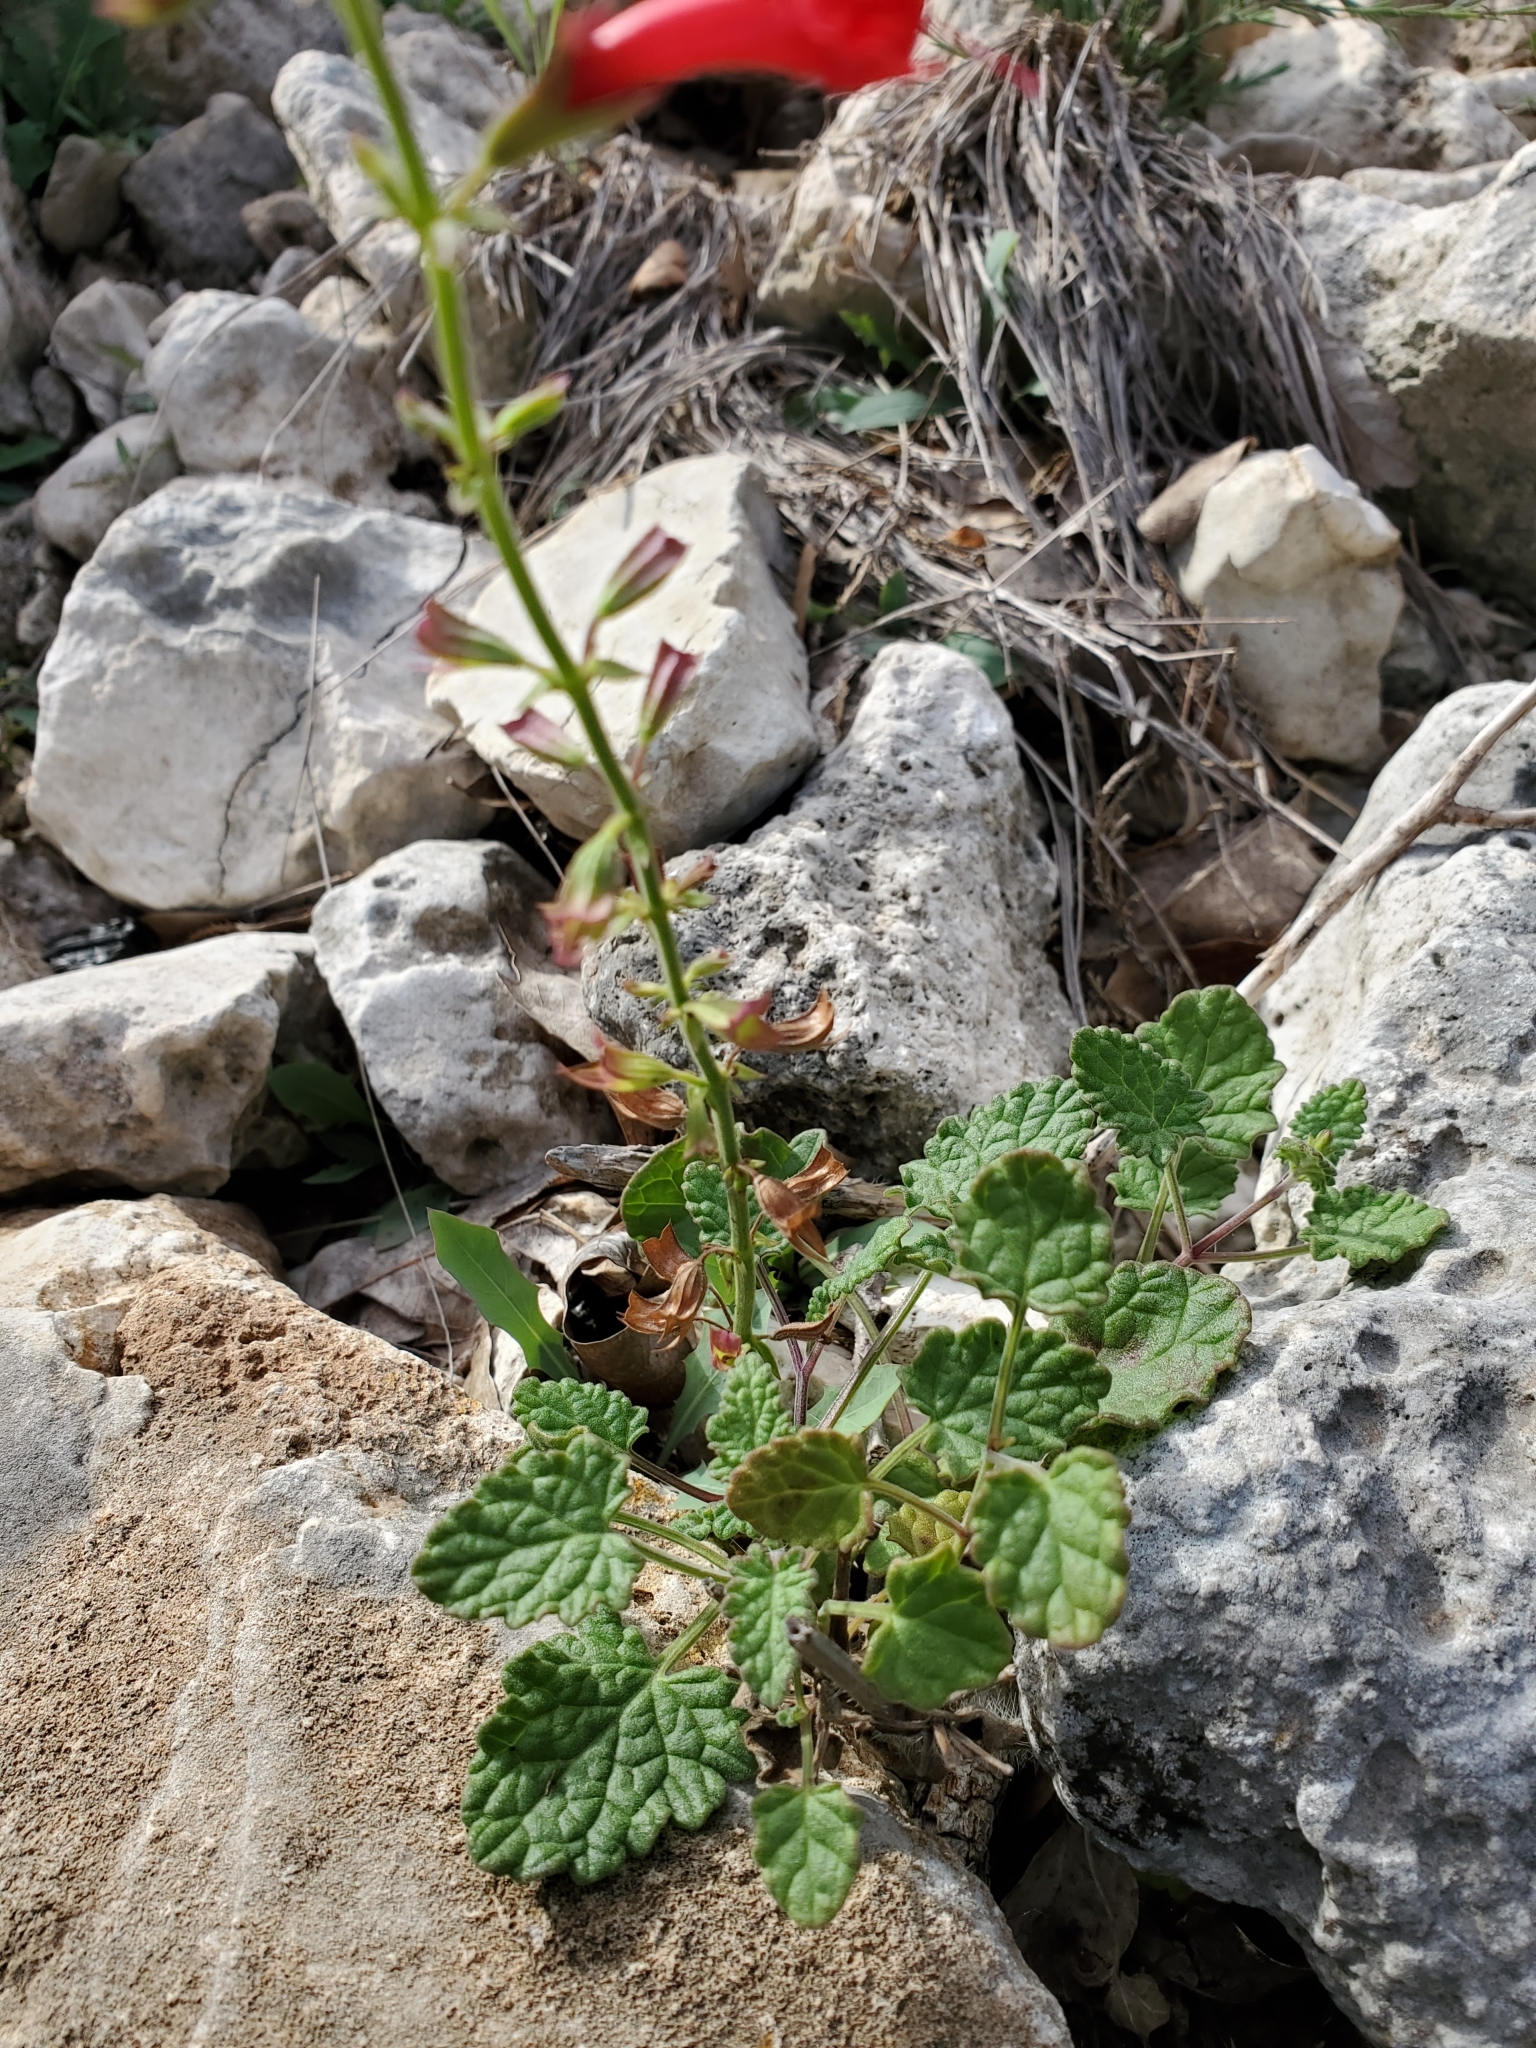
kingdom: Plantae
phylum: Tracheophyta
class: Magnoliopsida
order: Lamiales
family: Lamiaceae
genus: Salvia
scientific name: Salvia roemeriana
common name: Cedar sage
